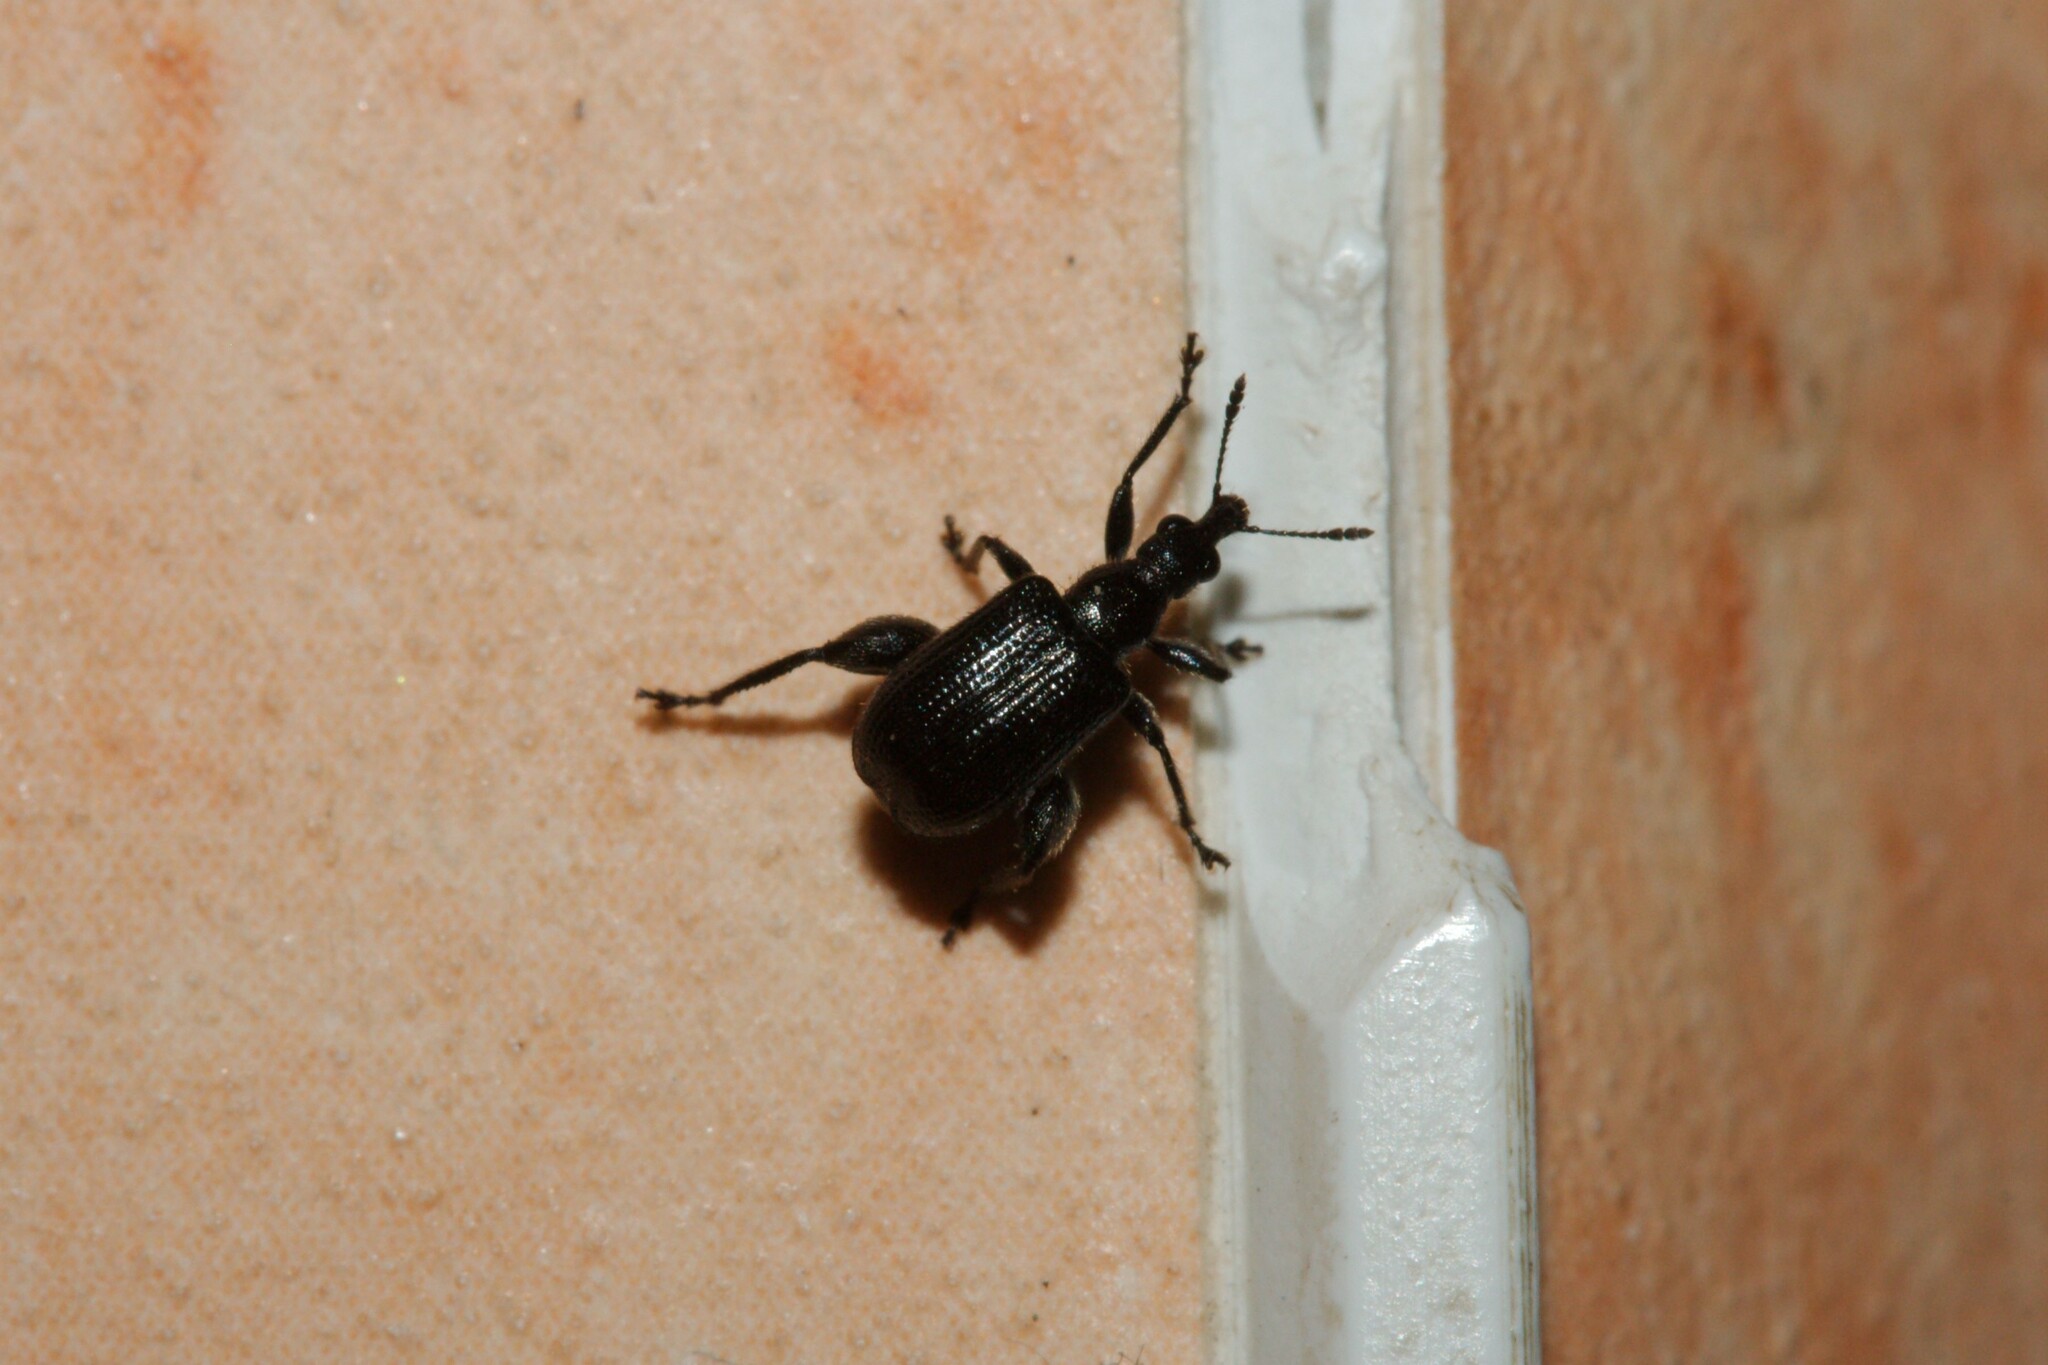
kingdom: Animalia
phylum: Arthropoda
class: Insecta
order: Coleoptera
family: Attelabidae
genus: Deporaus
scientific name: Deporaus betulae
